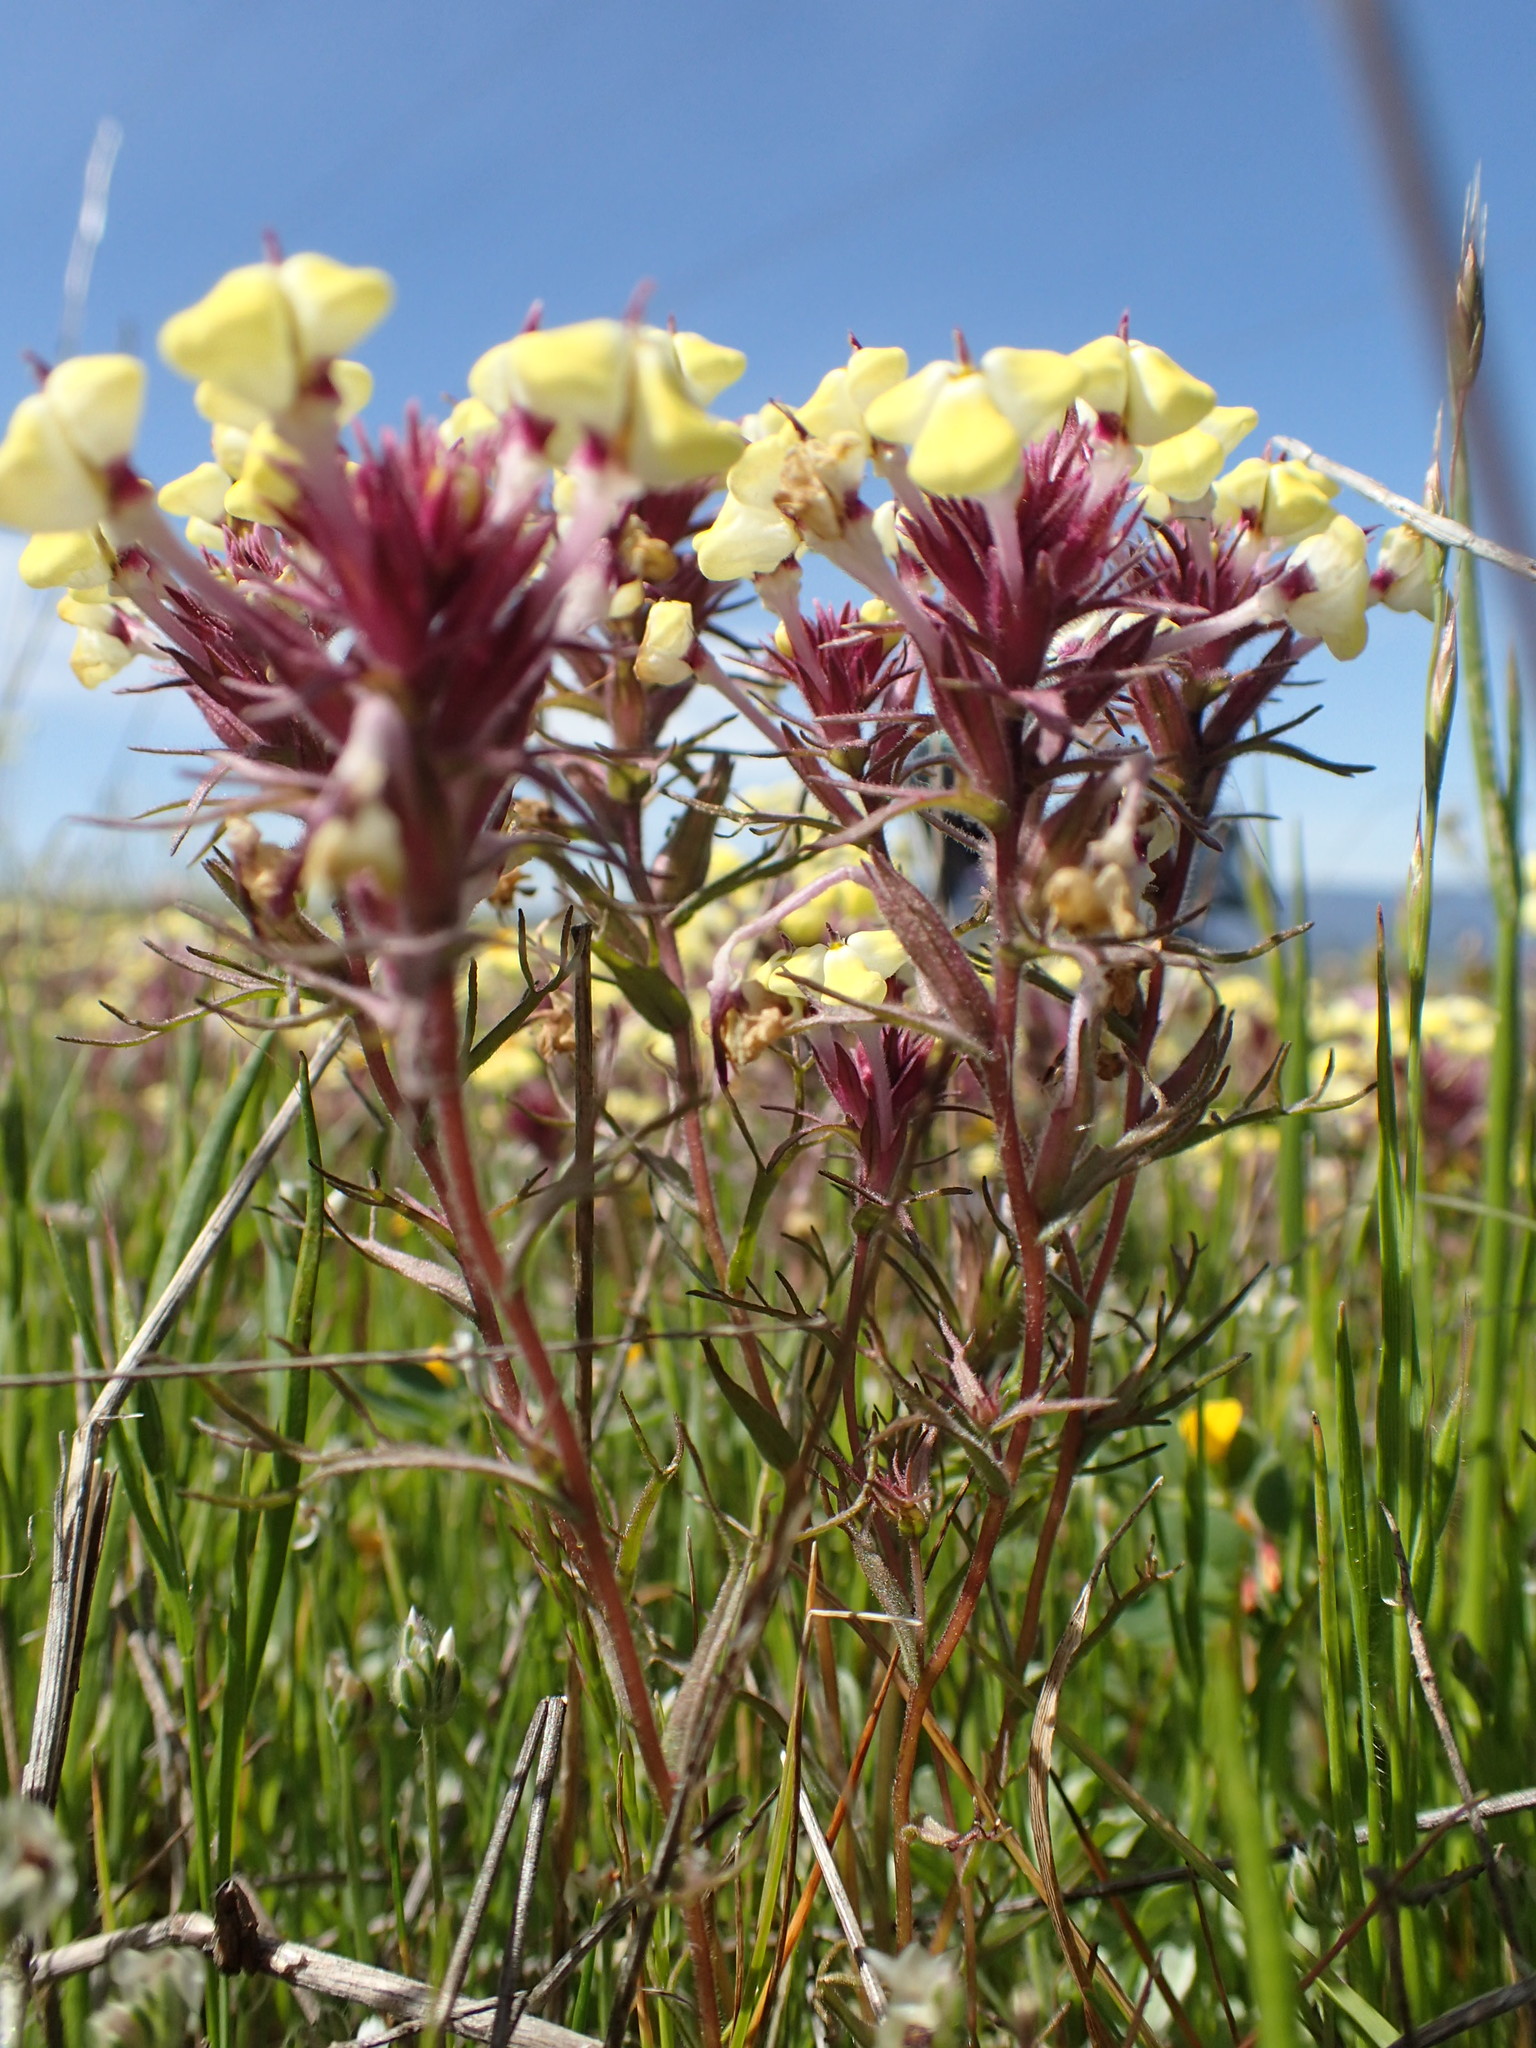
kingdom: Plantae
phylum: Tracheophyta
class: Magnoliopsida
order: Lamiales
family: Orobanchaceae
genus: Triphysaria
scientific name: Triphysaria eriantha
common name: Johnny-tuck
